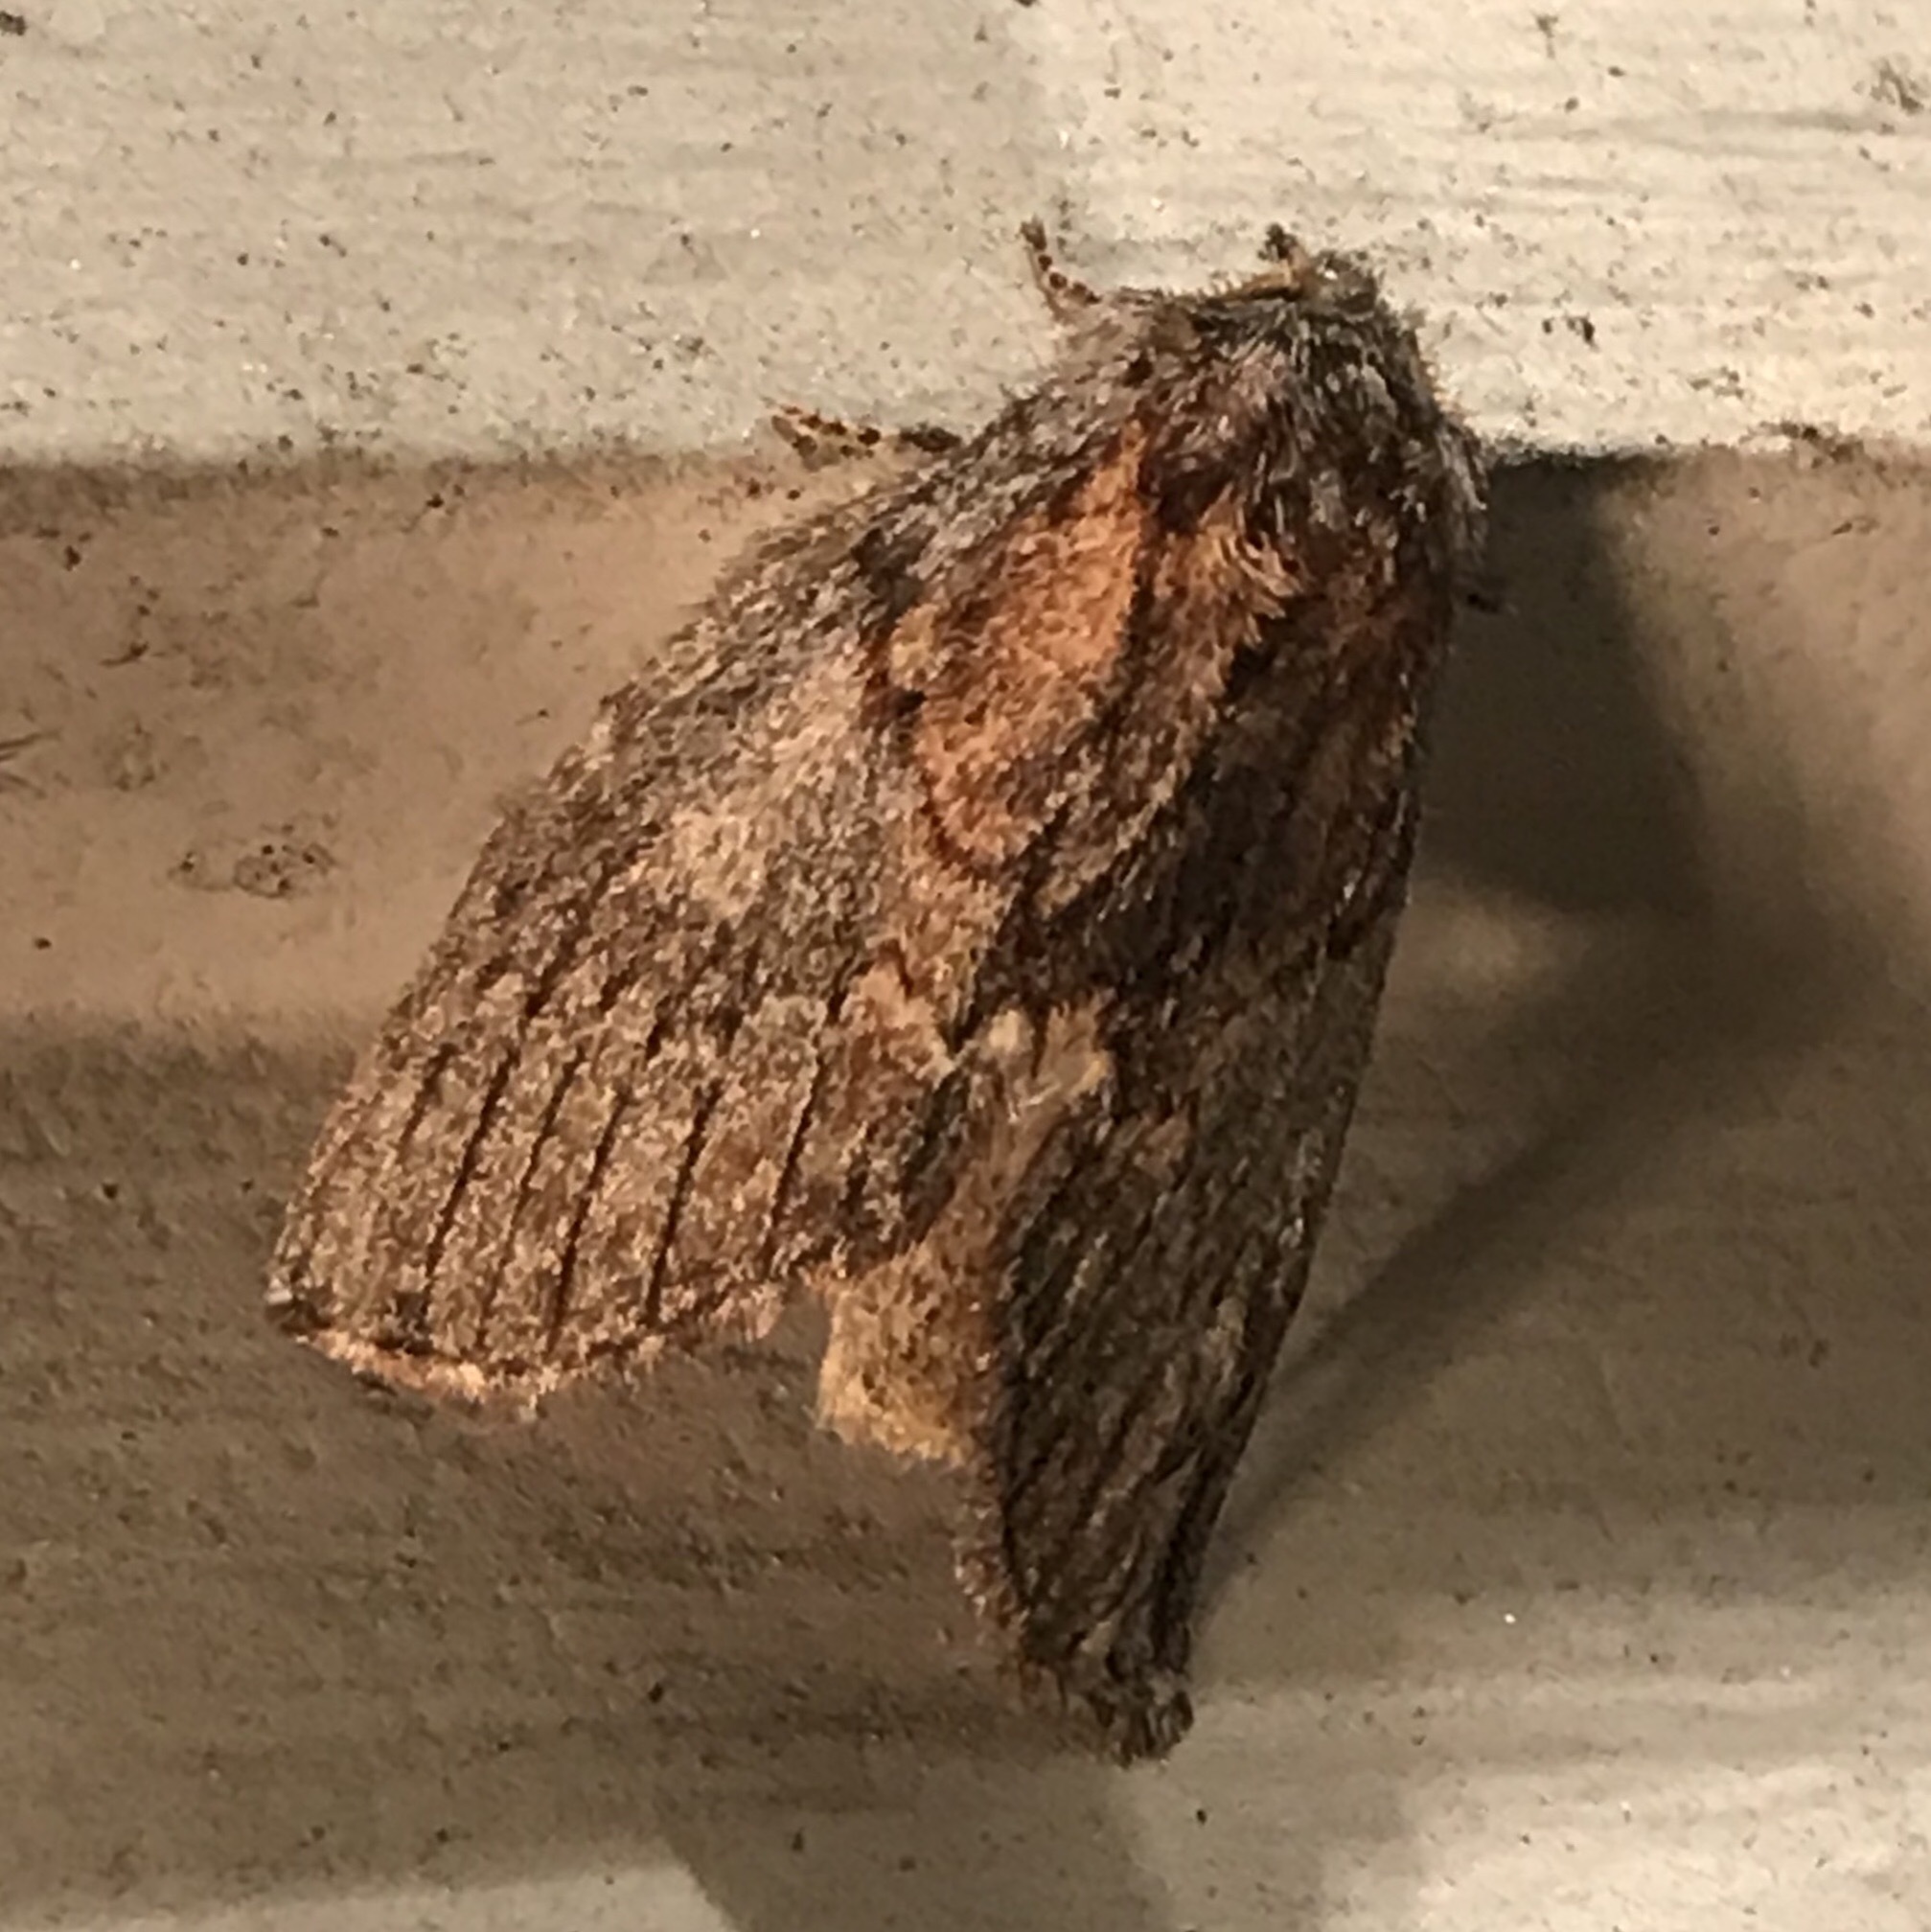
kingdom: Animalia
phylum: Arthropoda
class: Insecta
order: Lepidoptera
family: Notodontidae
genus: Peridea
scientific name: Peridea basitriens
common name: Oval-based prominent
